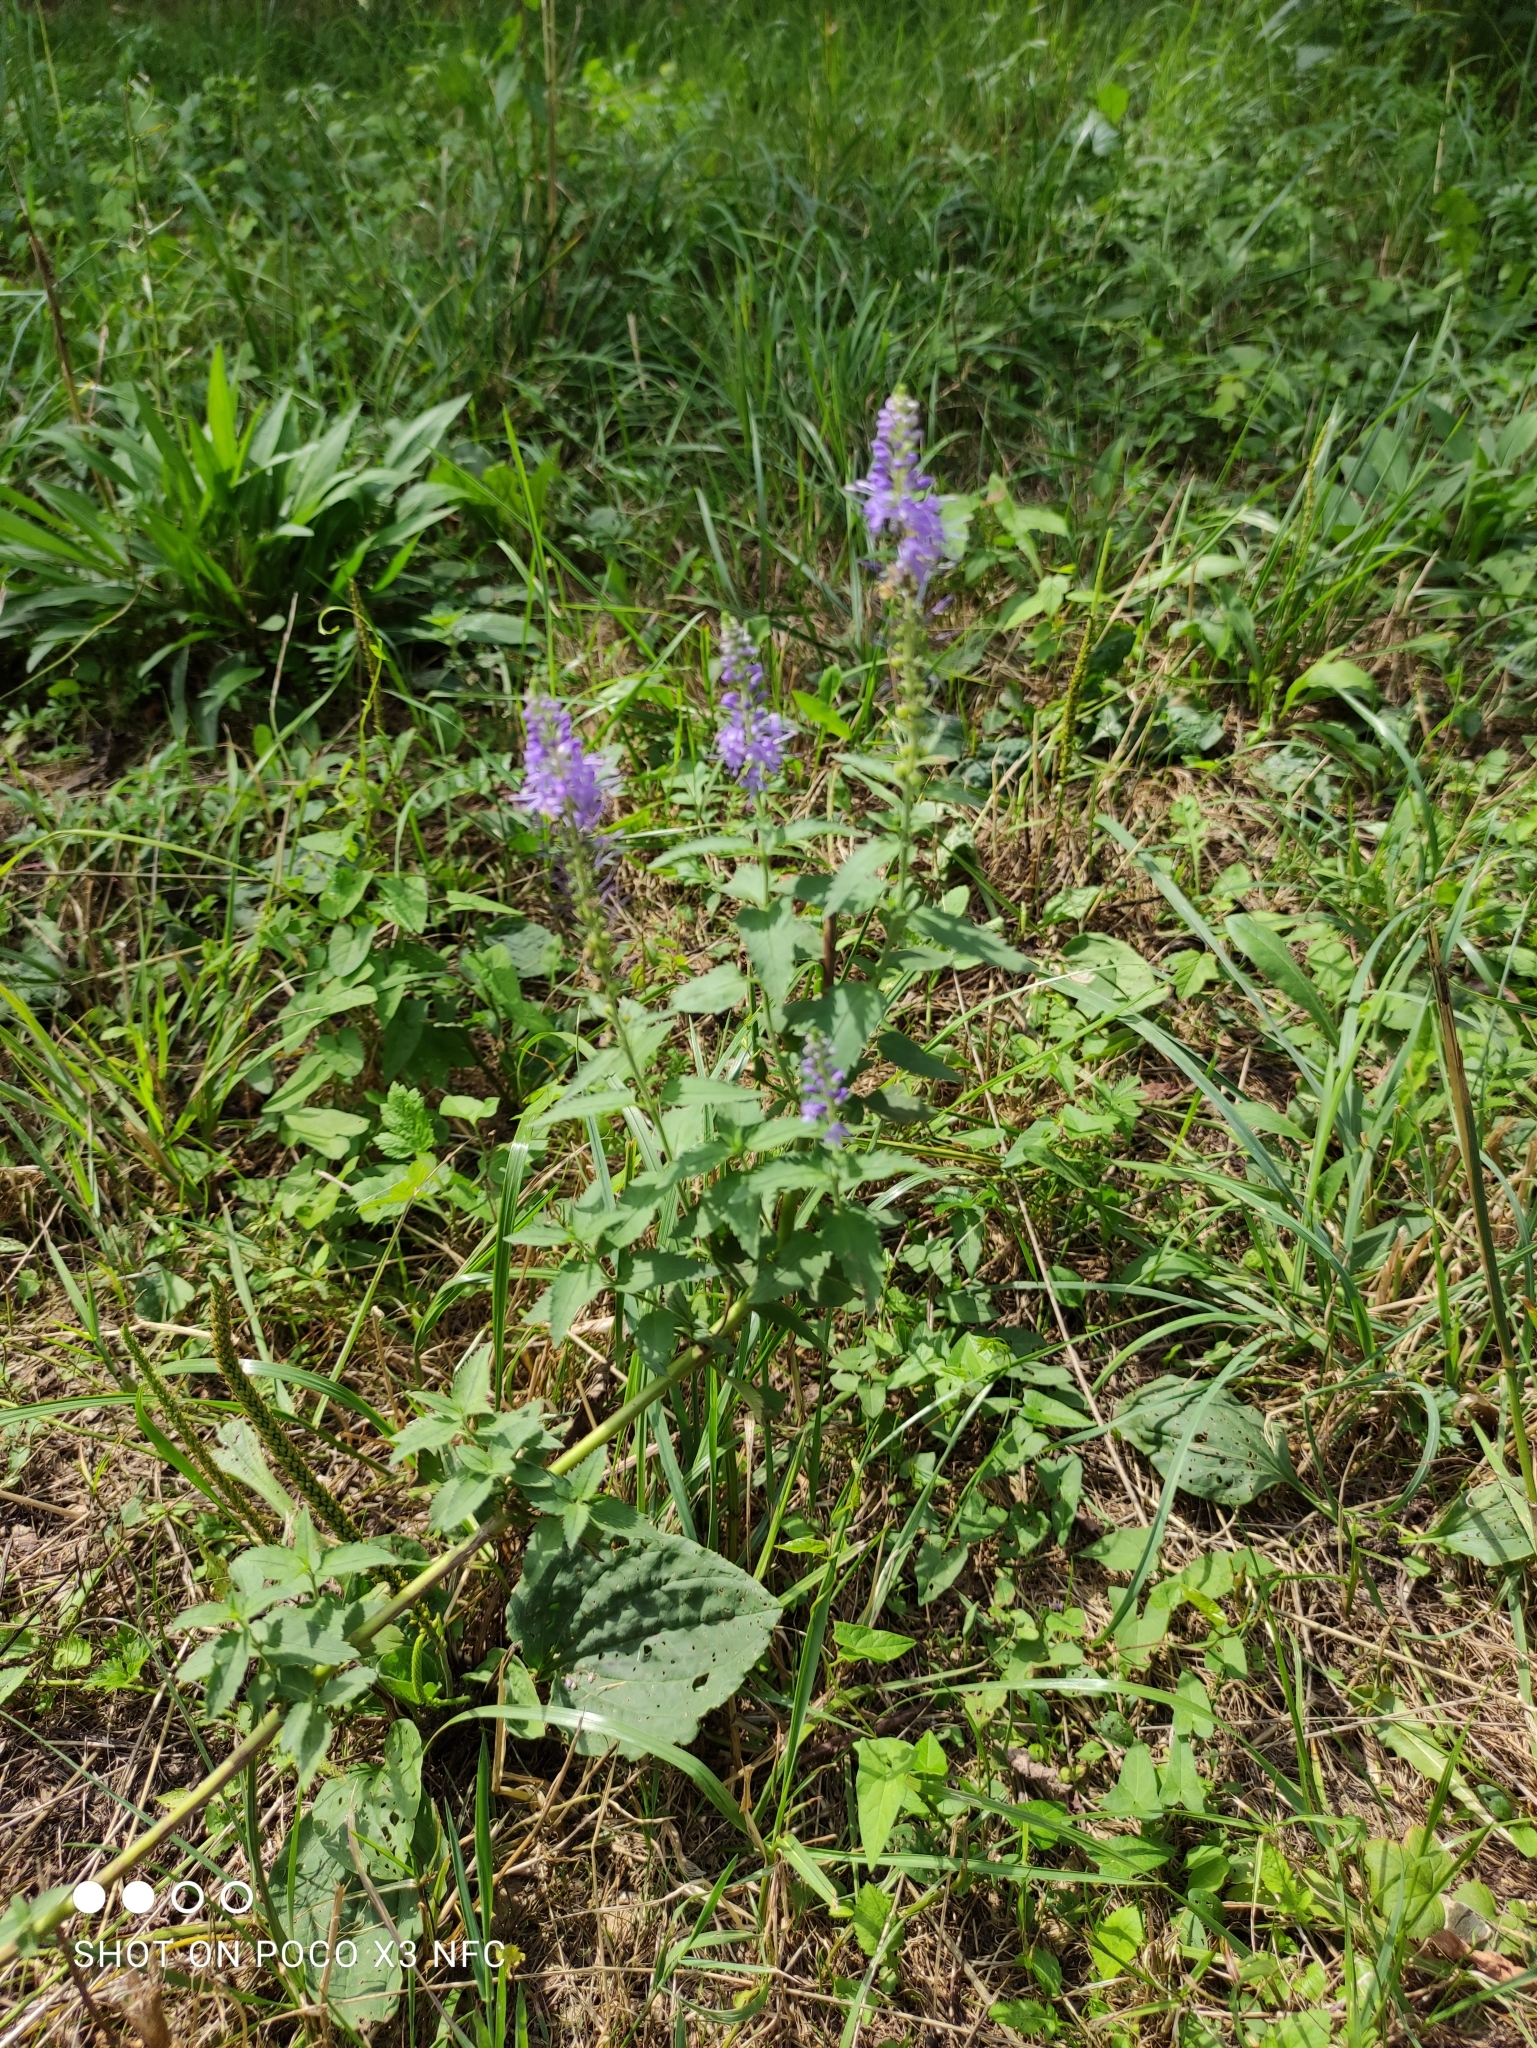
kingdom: Plantae
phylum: Tracheophyta
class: Magnoliopsida
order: Lamiales
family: Plantaginaceae
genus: Veronica
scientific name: Veronica longifolia
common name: Garden speedwell
